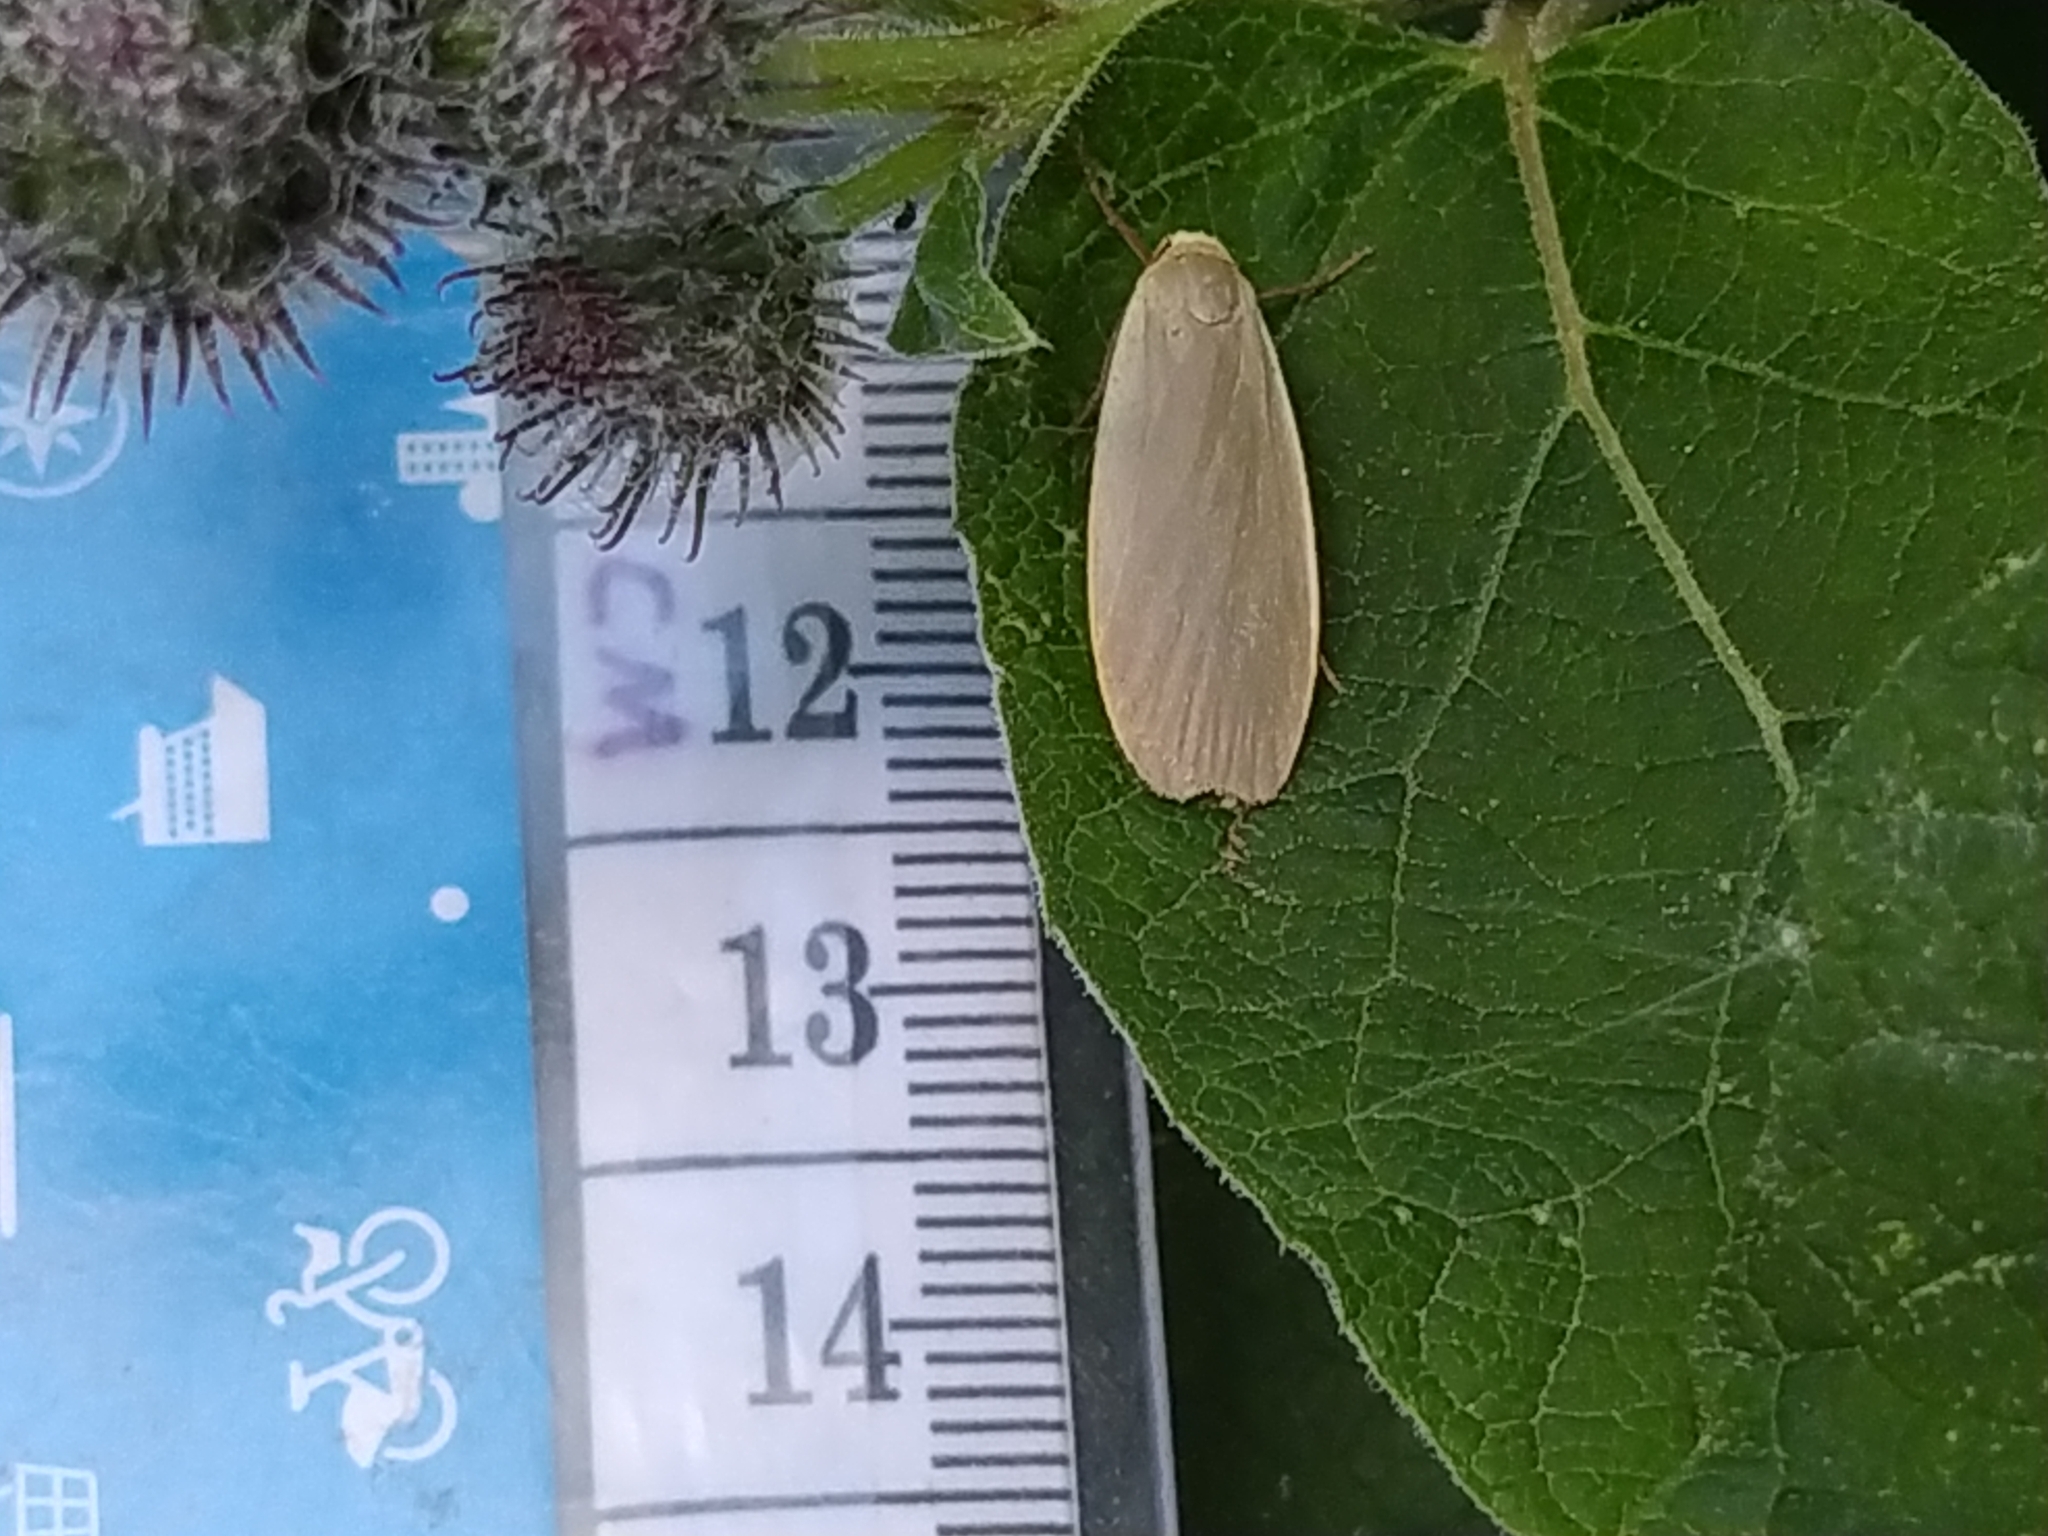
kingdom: Animalia
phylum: Arthropoda
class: Insecta
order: Lepidoptera
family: Erebidae
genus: Collita
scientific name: Collita griseola
